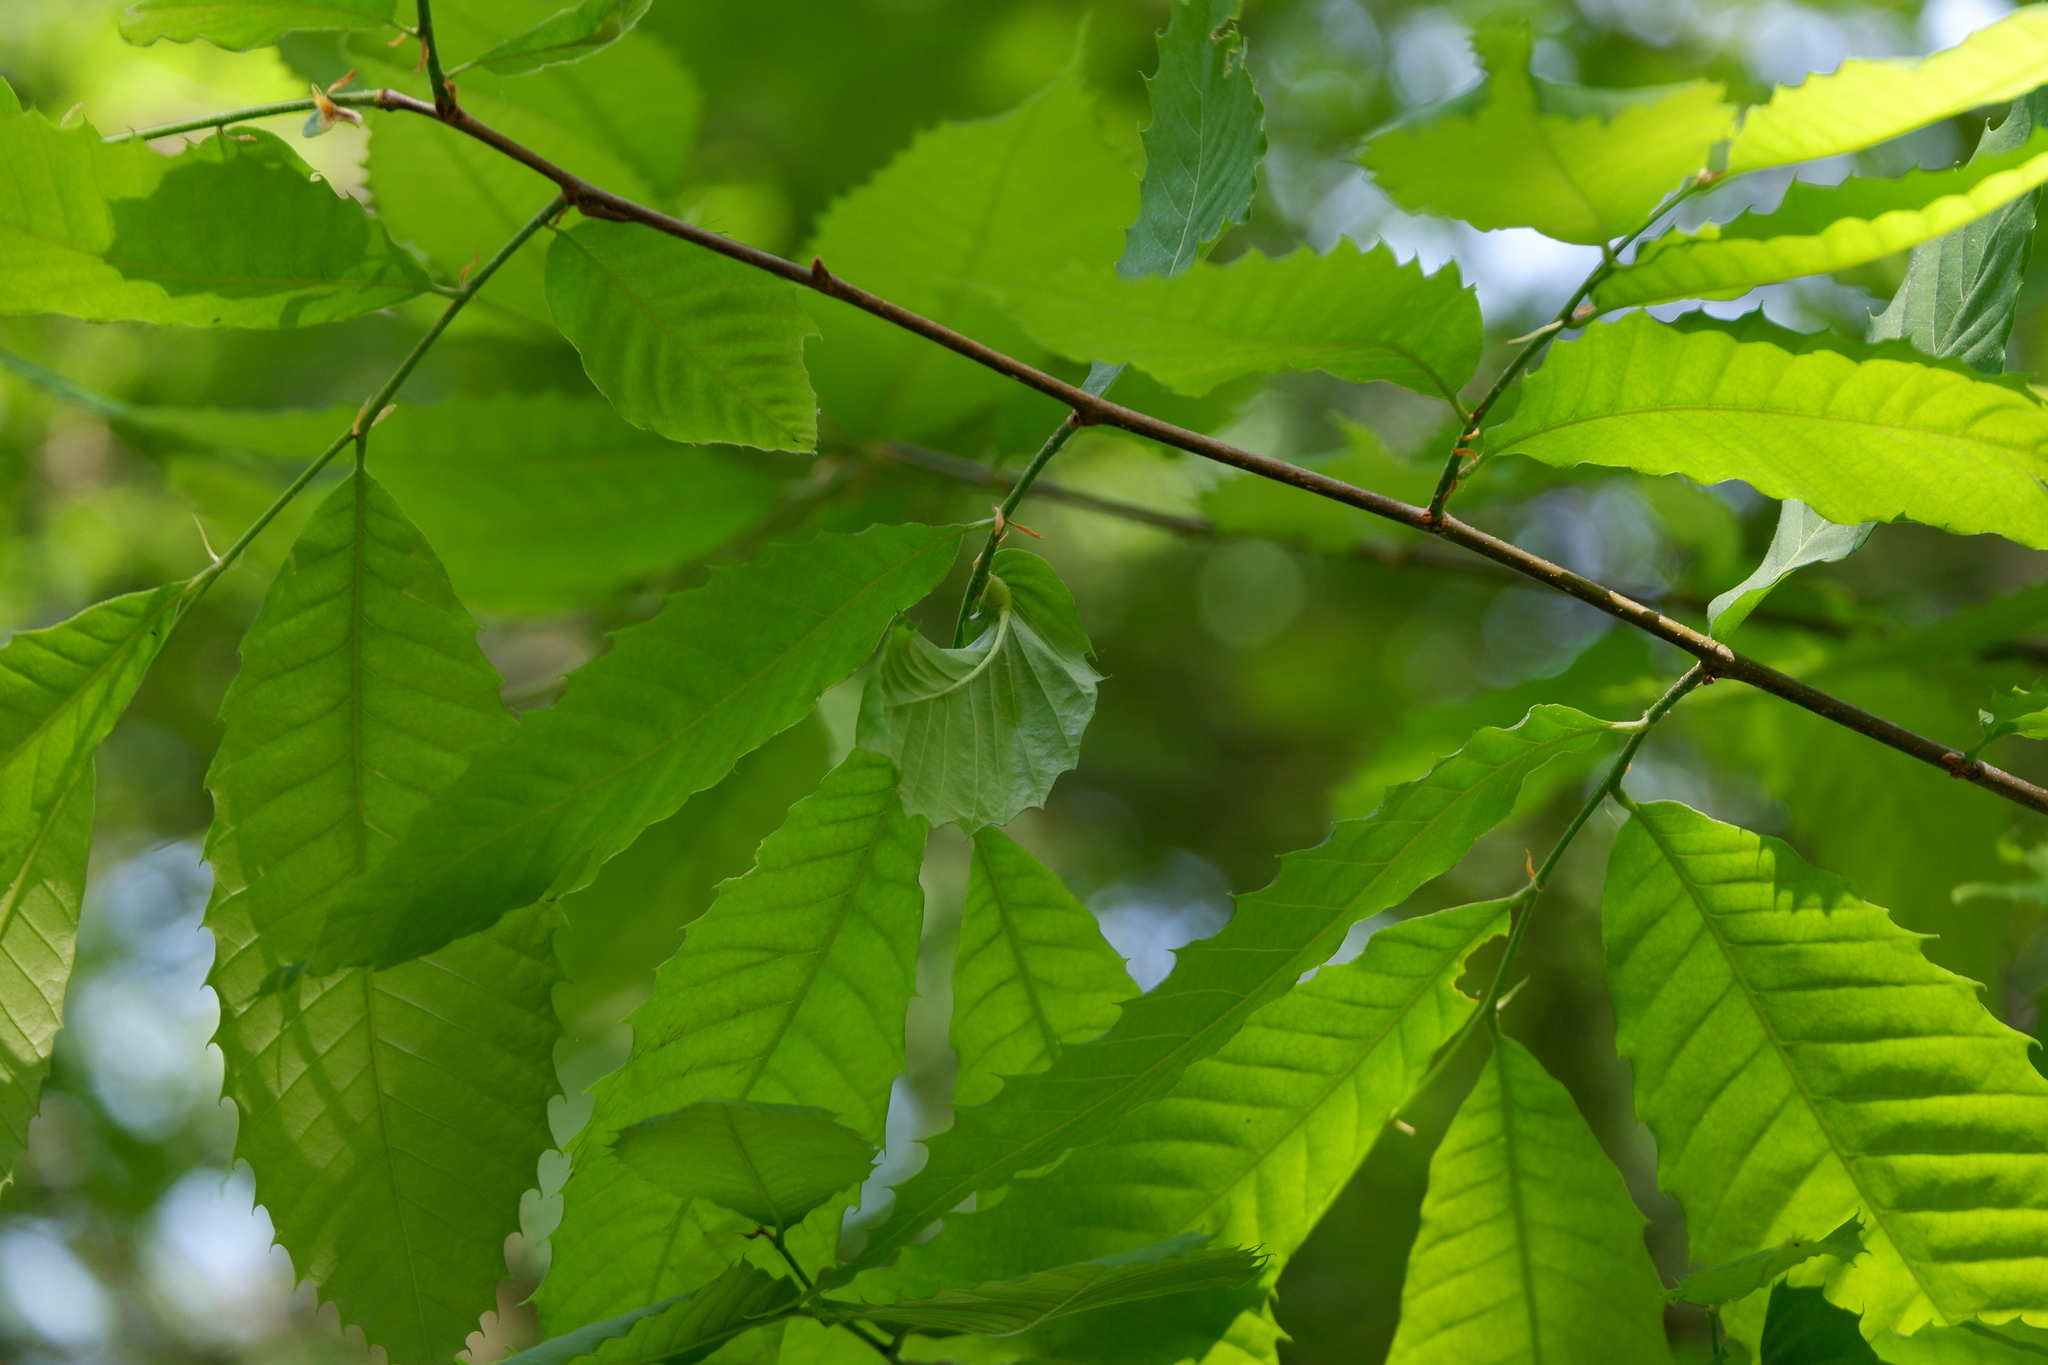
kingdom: Animalia
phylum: Arthropoda
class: Insecta
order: Hymenoptera
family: Cynipidae
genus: Dryocosmus
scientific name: Dryocosmus kuriphilus
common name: Asian chestnut gall wasp
